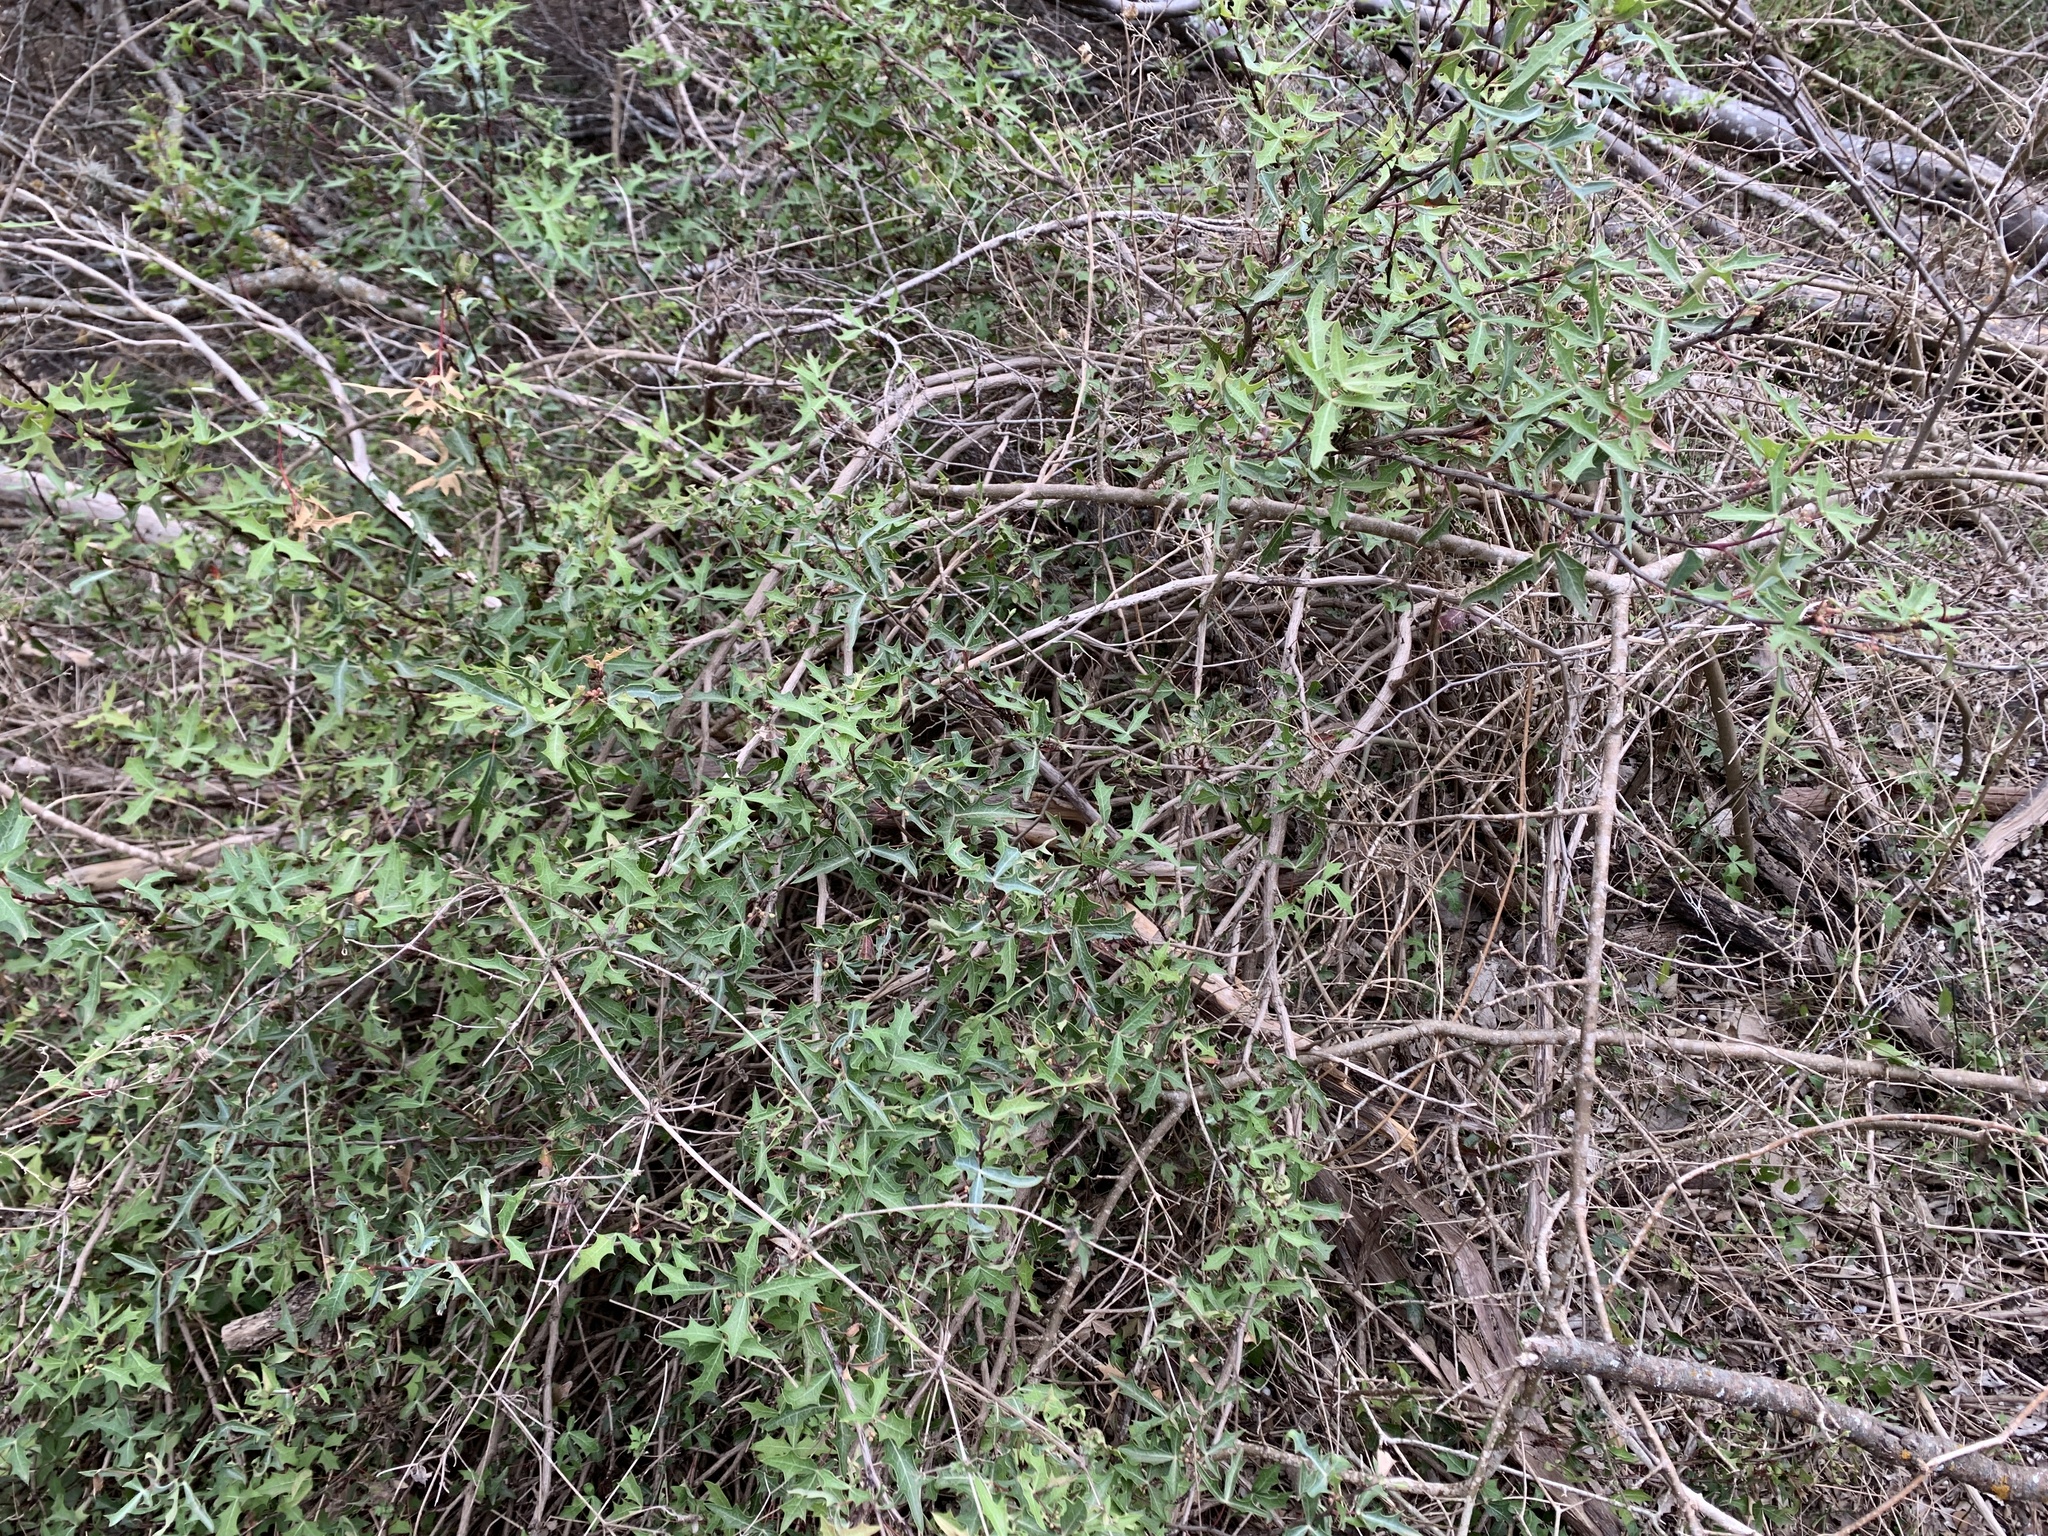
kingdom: Plantae
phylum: Tracheophyta
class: Magnoliopsida
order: Ranunculales
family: Berberidaceae
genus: Alloberberis
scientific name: Alloberberis trifoliolata
